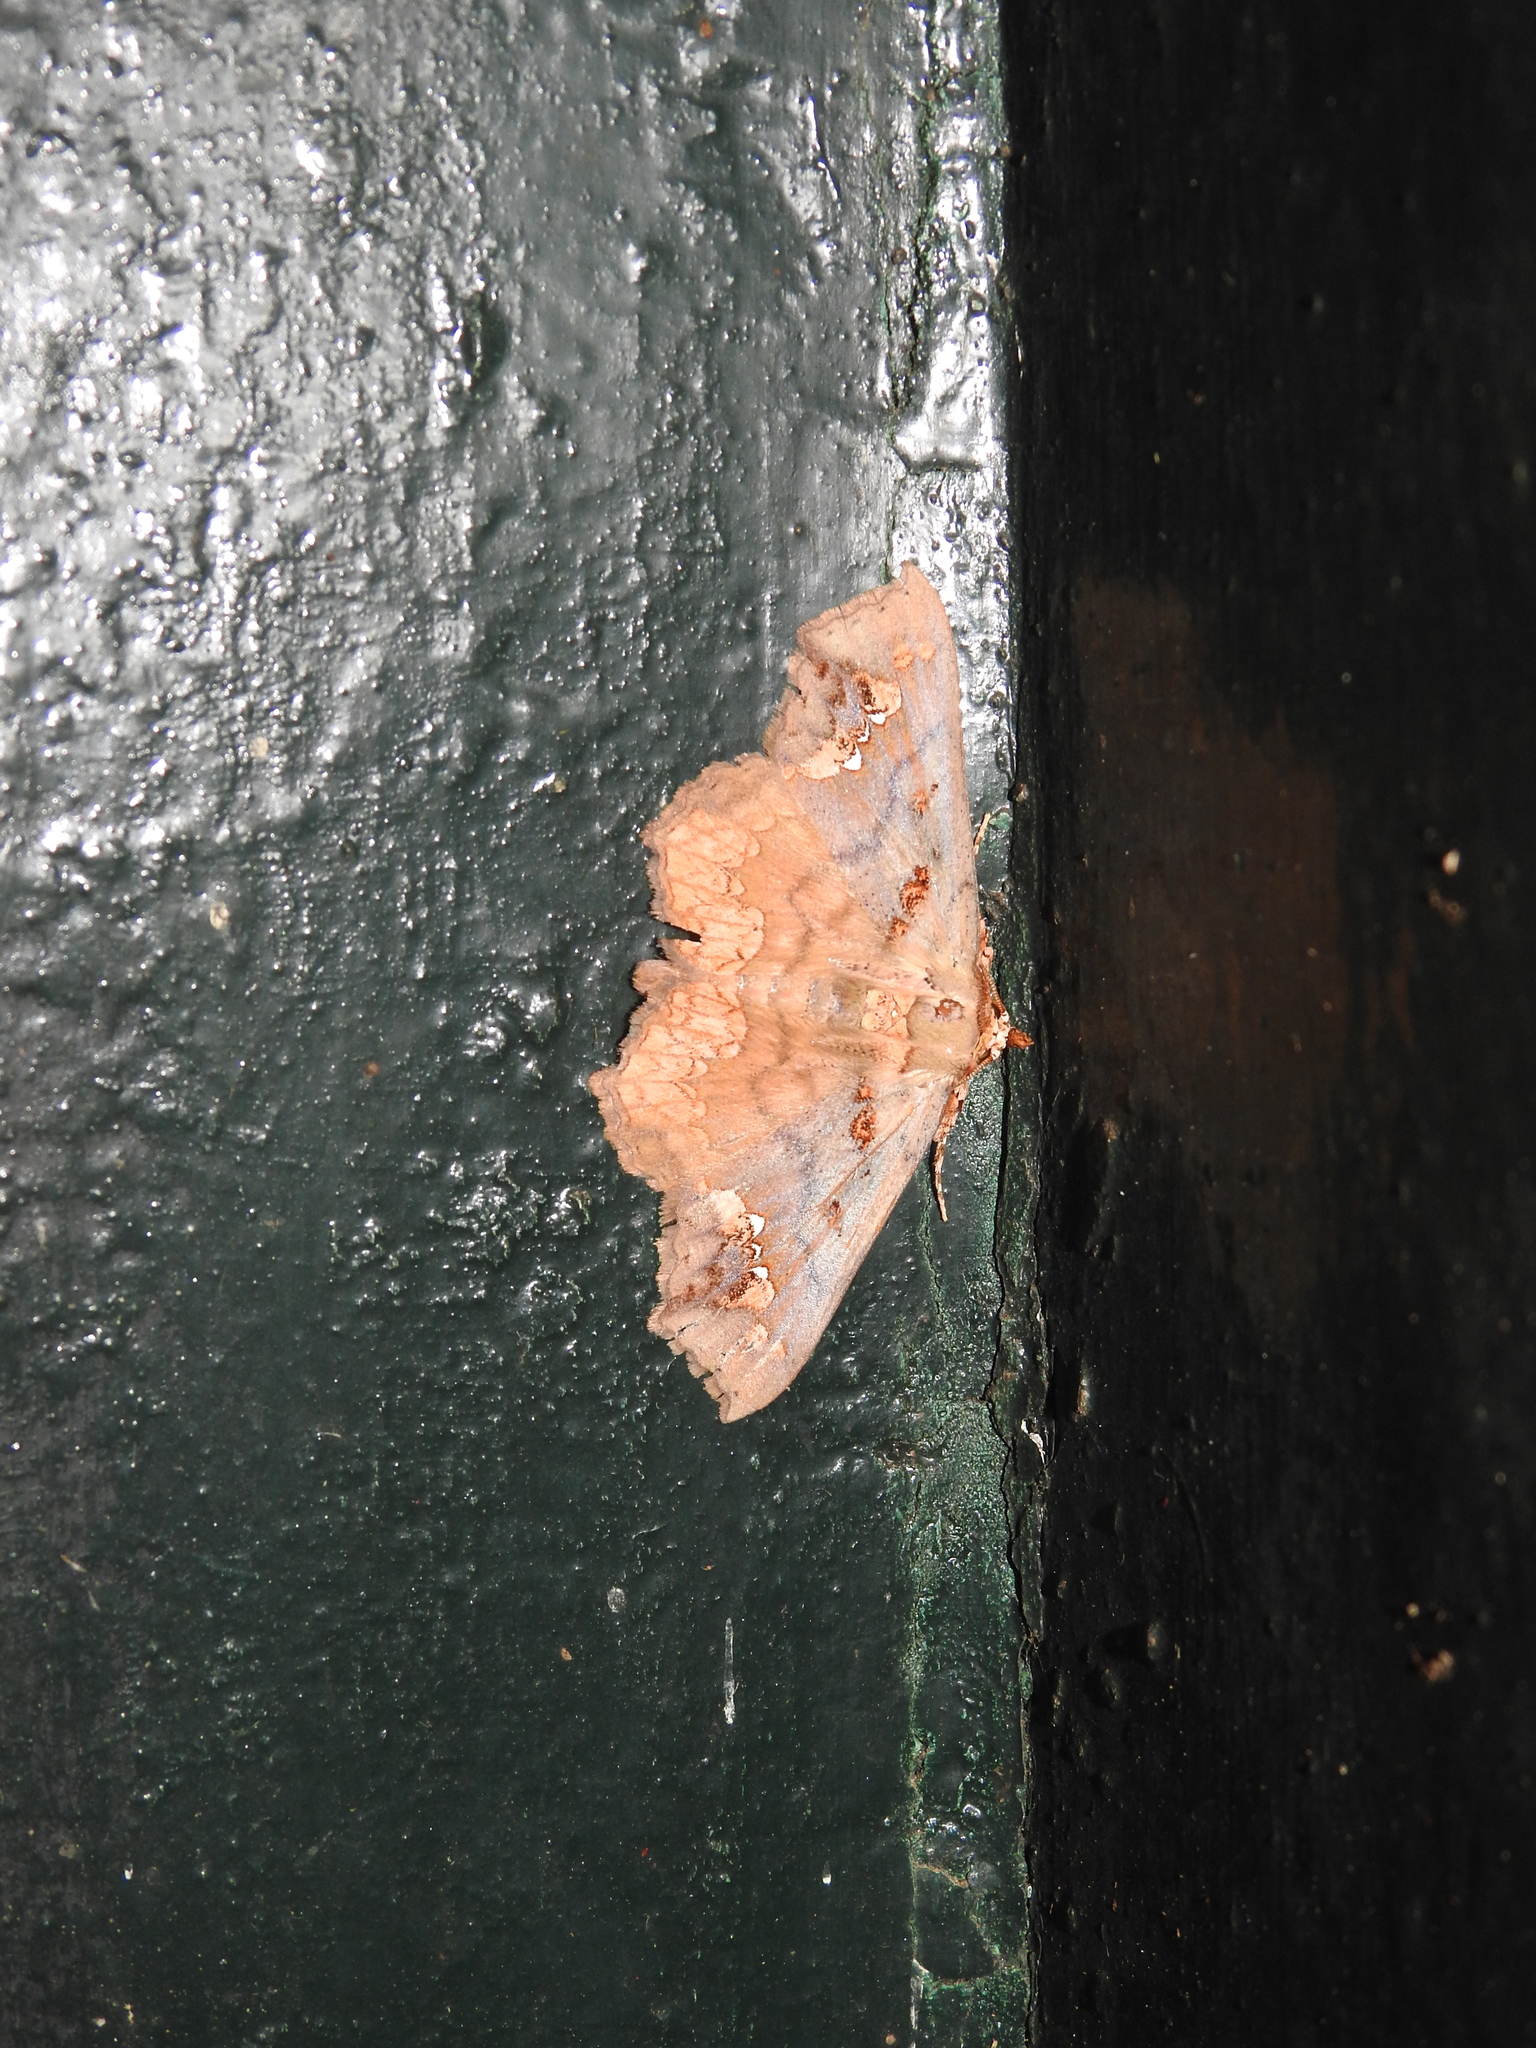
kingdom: Animalia
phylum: Arthropoda
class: Insecta
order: Lepidoptera
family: Erebidae
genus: Lopharthrum
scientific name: Lopharthrum comprimens
